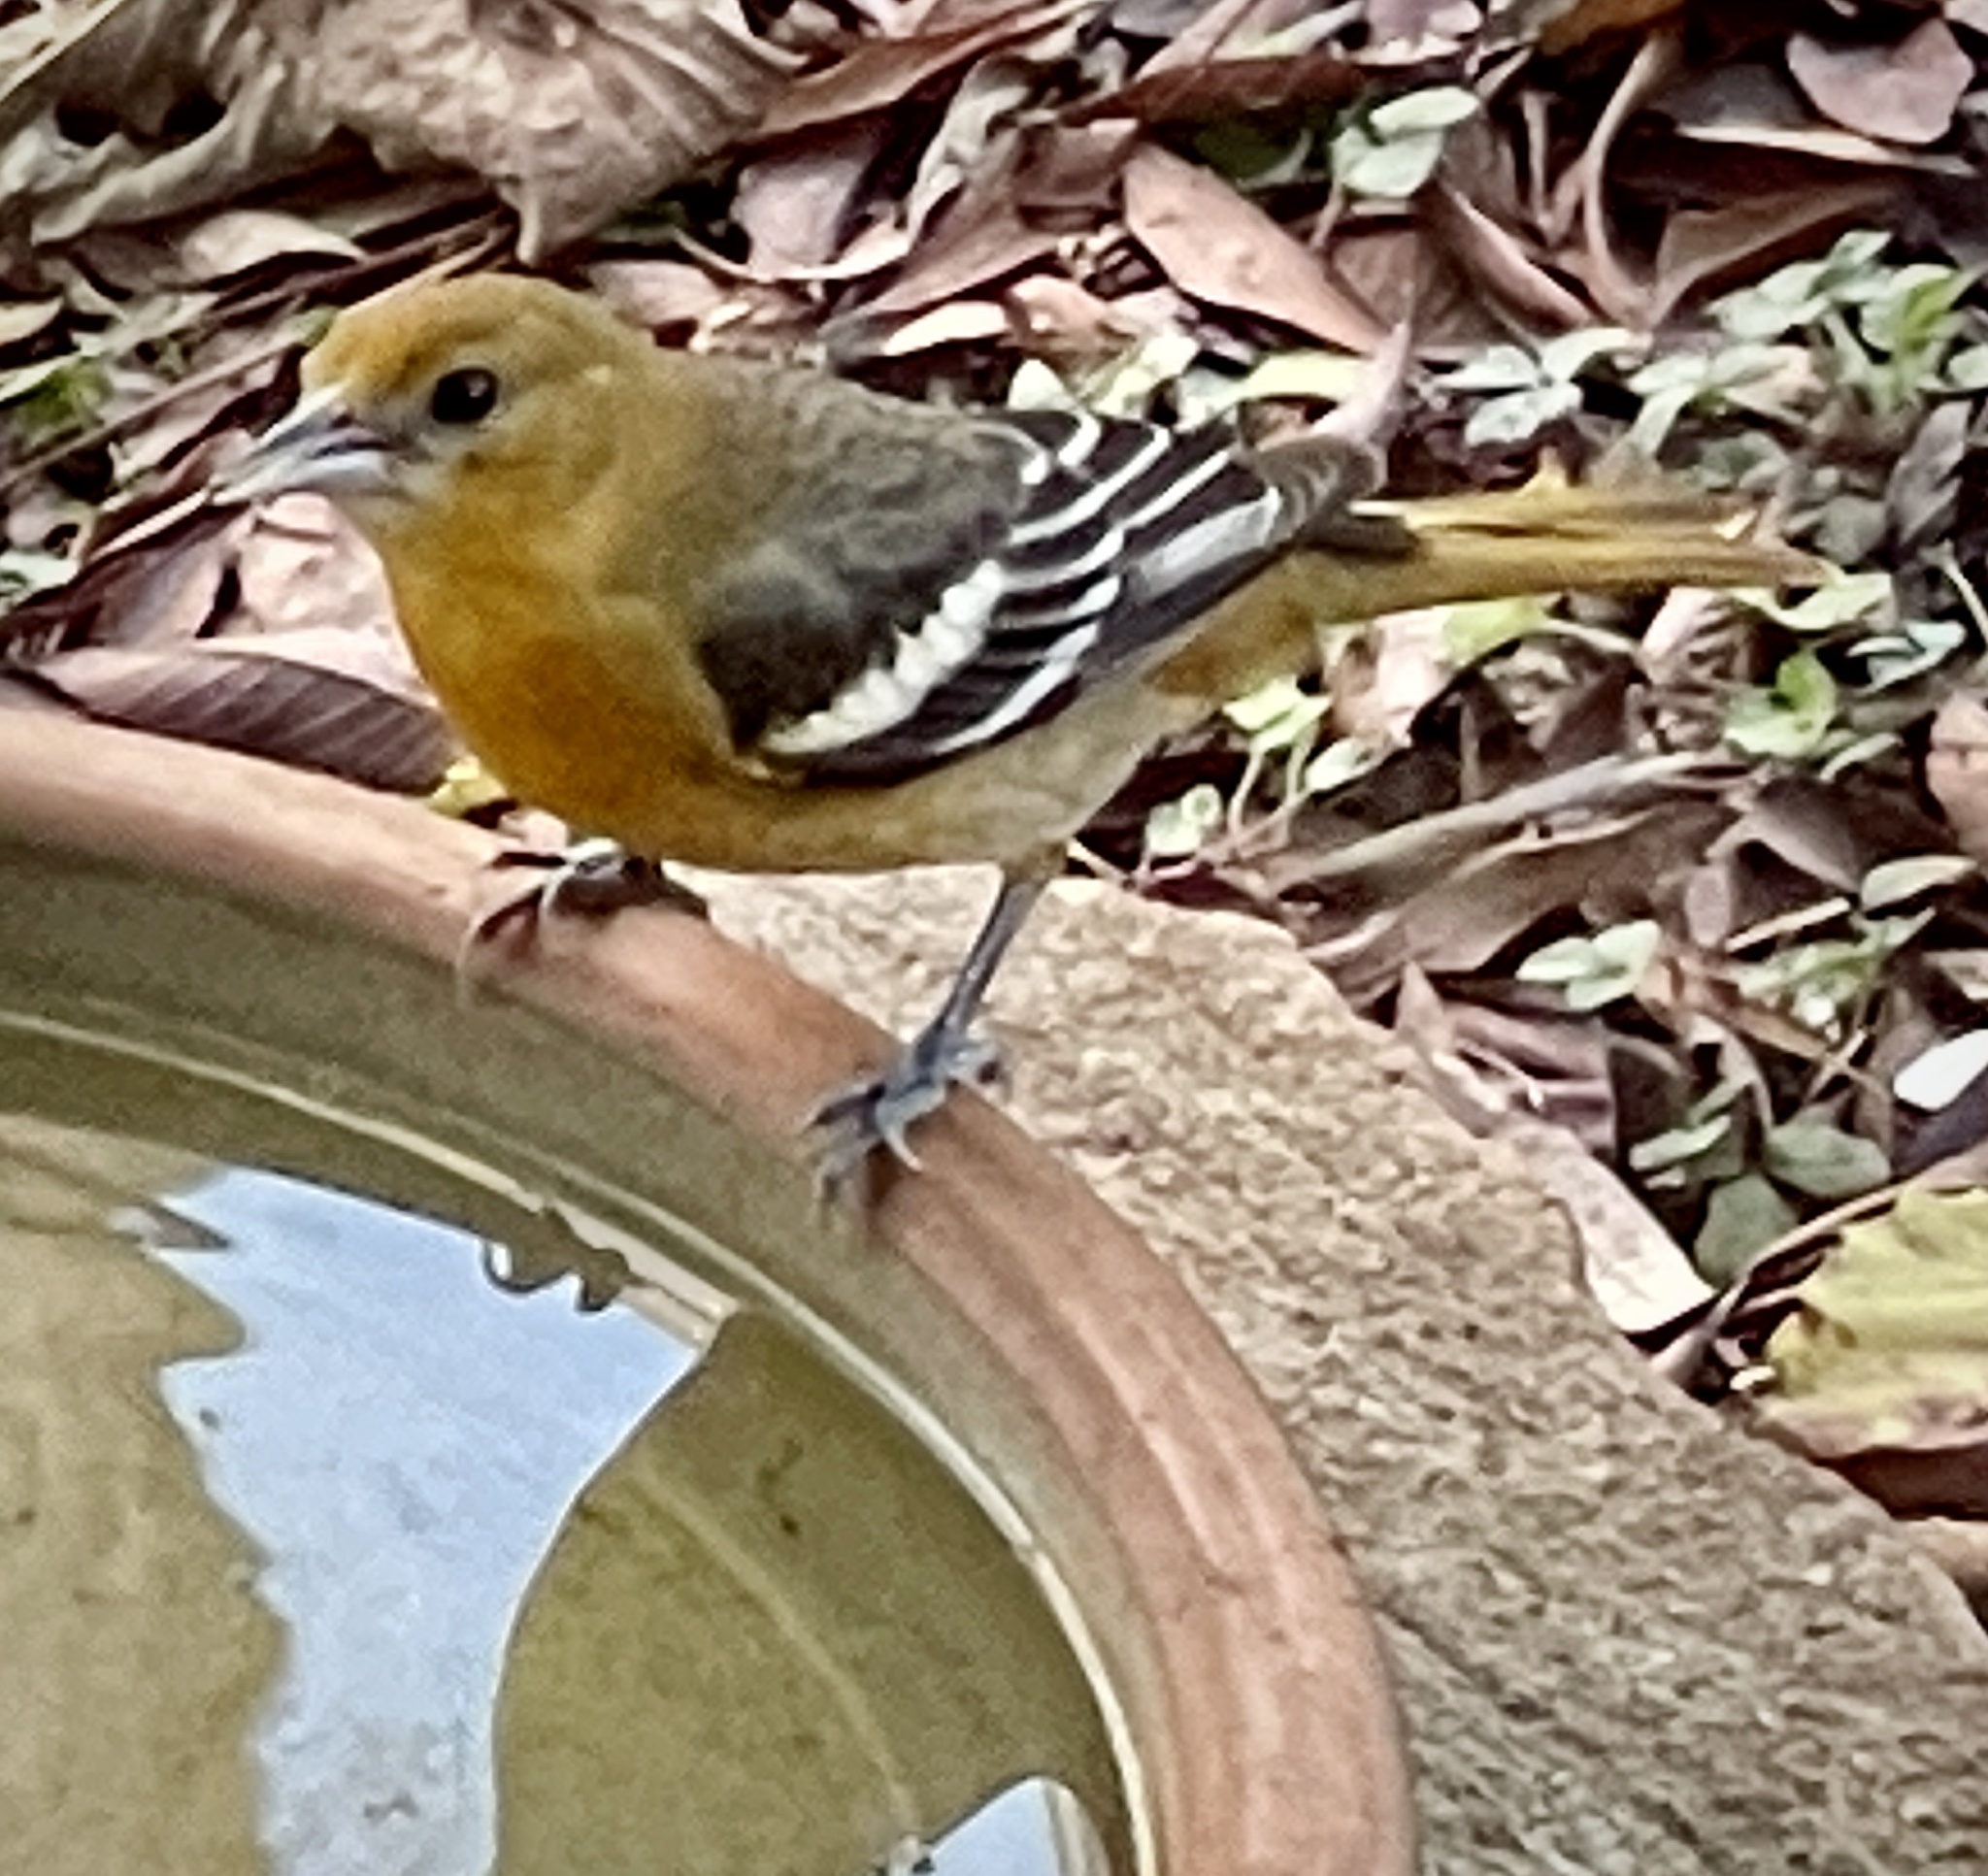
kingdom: Animalia
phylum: Chordata
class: Aves
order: Passeriformes
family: Icteridae
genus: Icterus
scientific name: Icterus galbula
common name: Baltimore oriole
